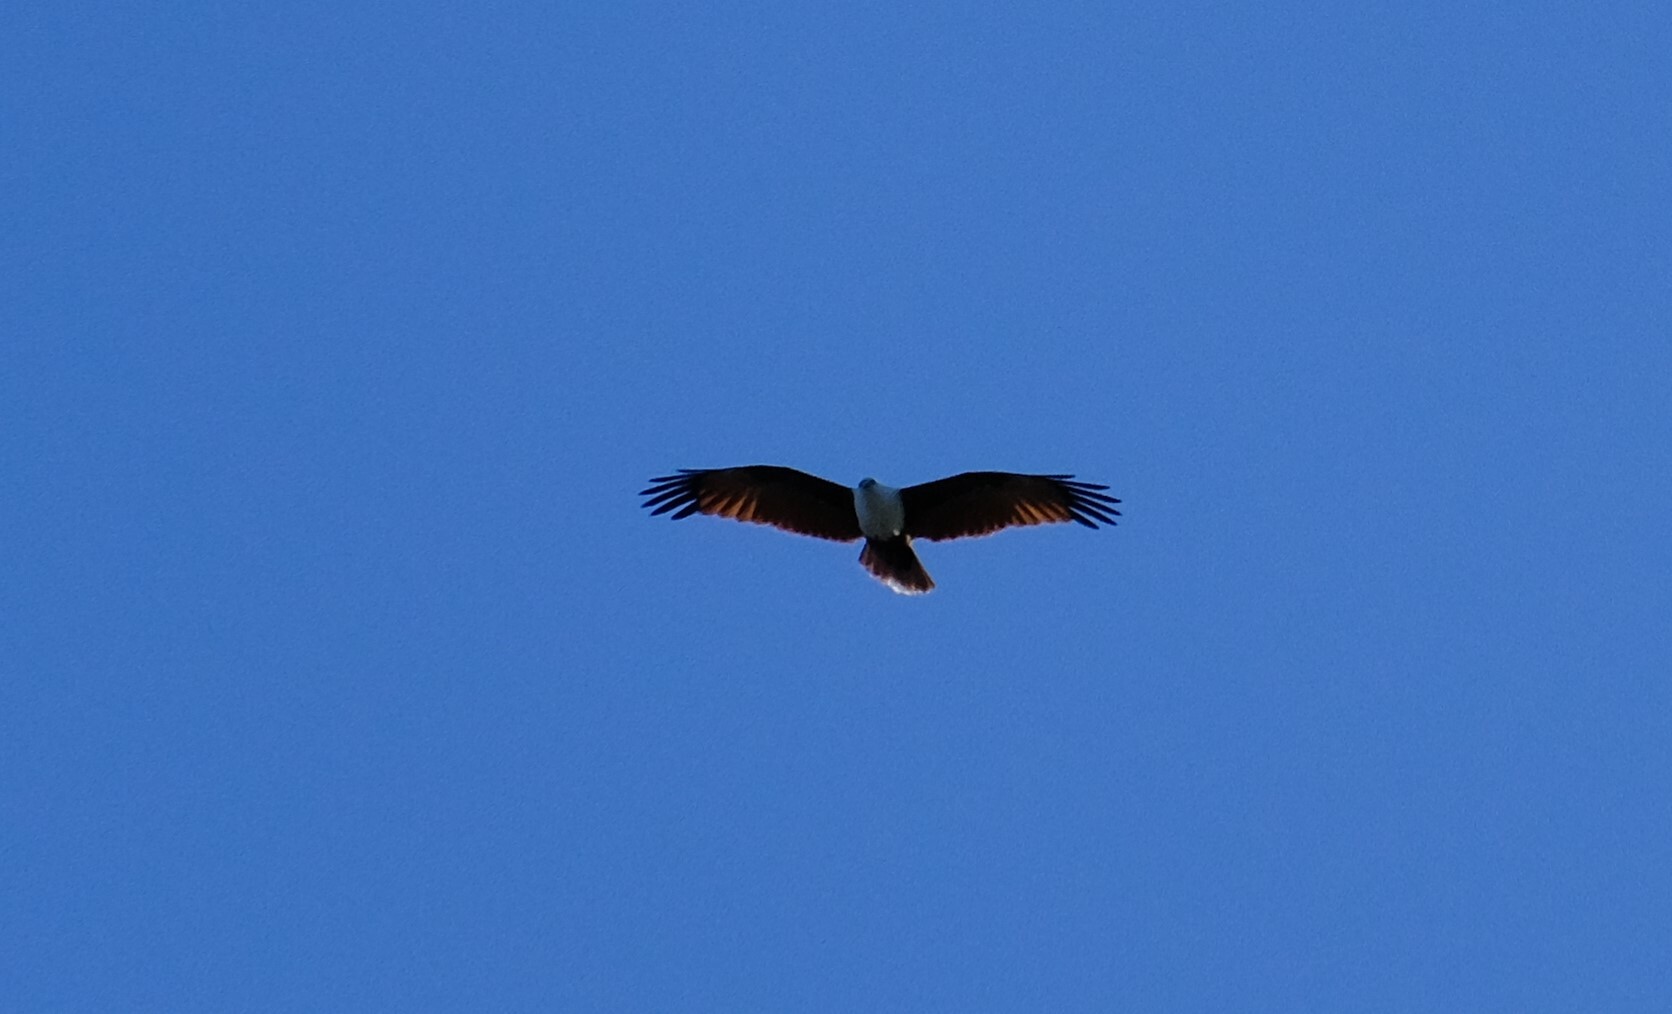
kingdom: Animalia
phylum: Chordata
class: Aves
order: Accipitriformes
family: Accipitridae
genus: Haliastur
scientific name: Haliastur indus
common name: Brahminy kite
